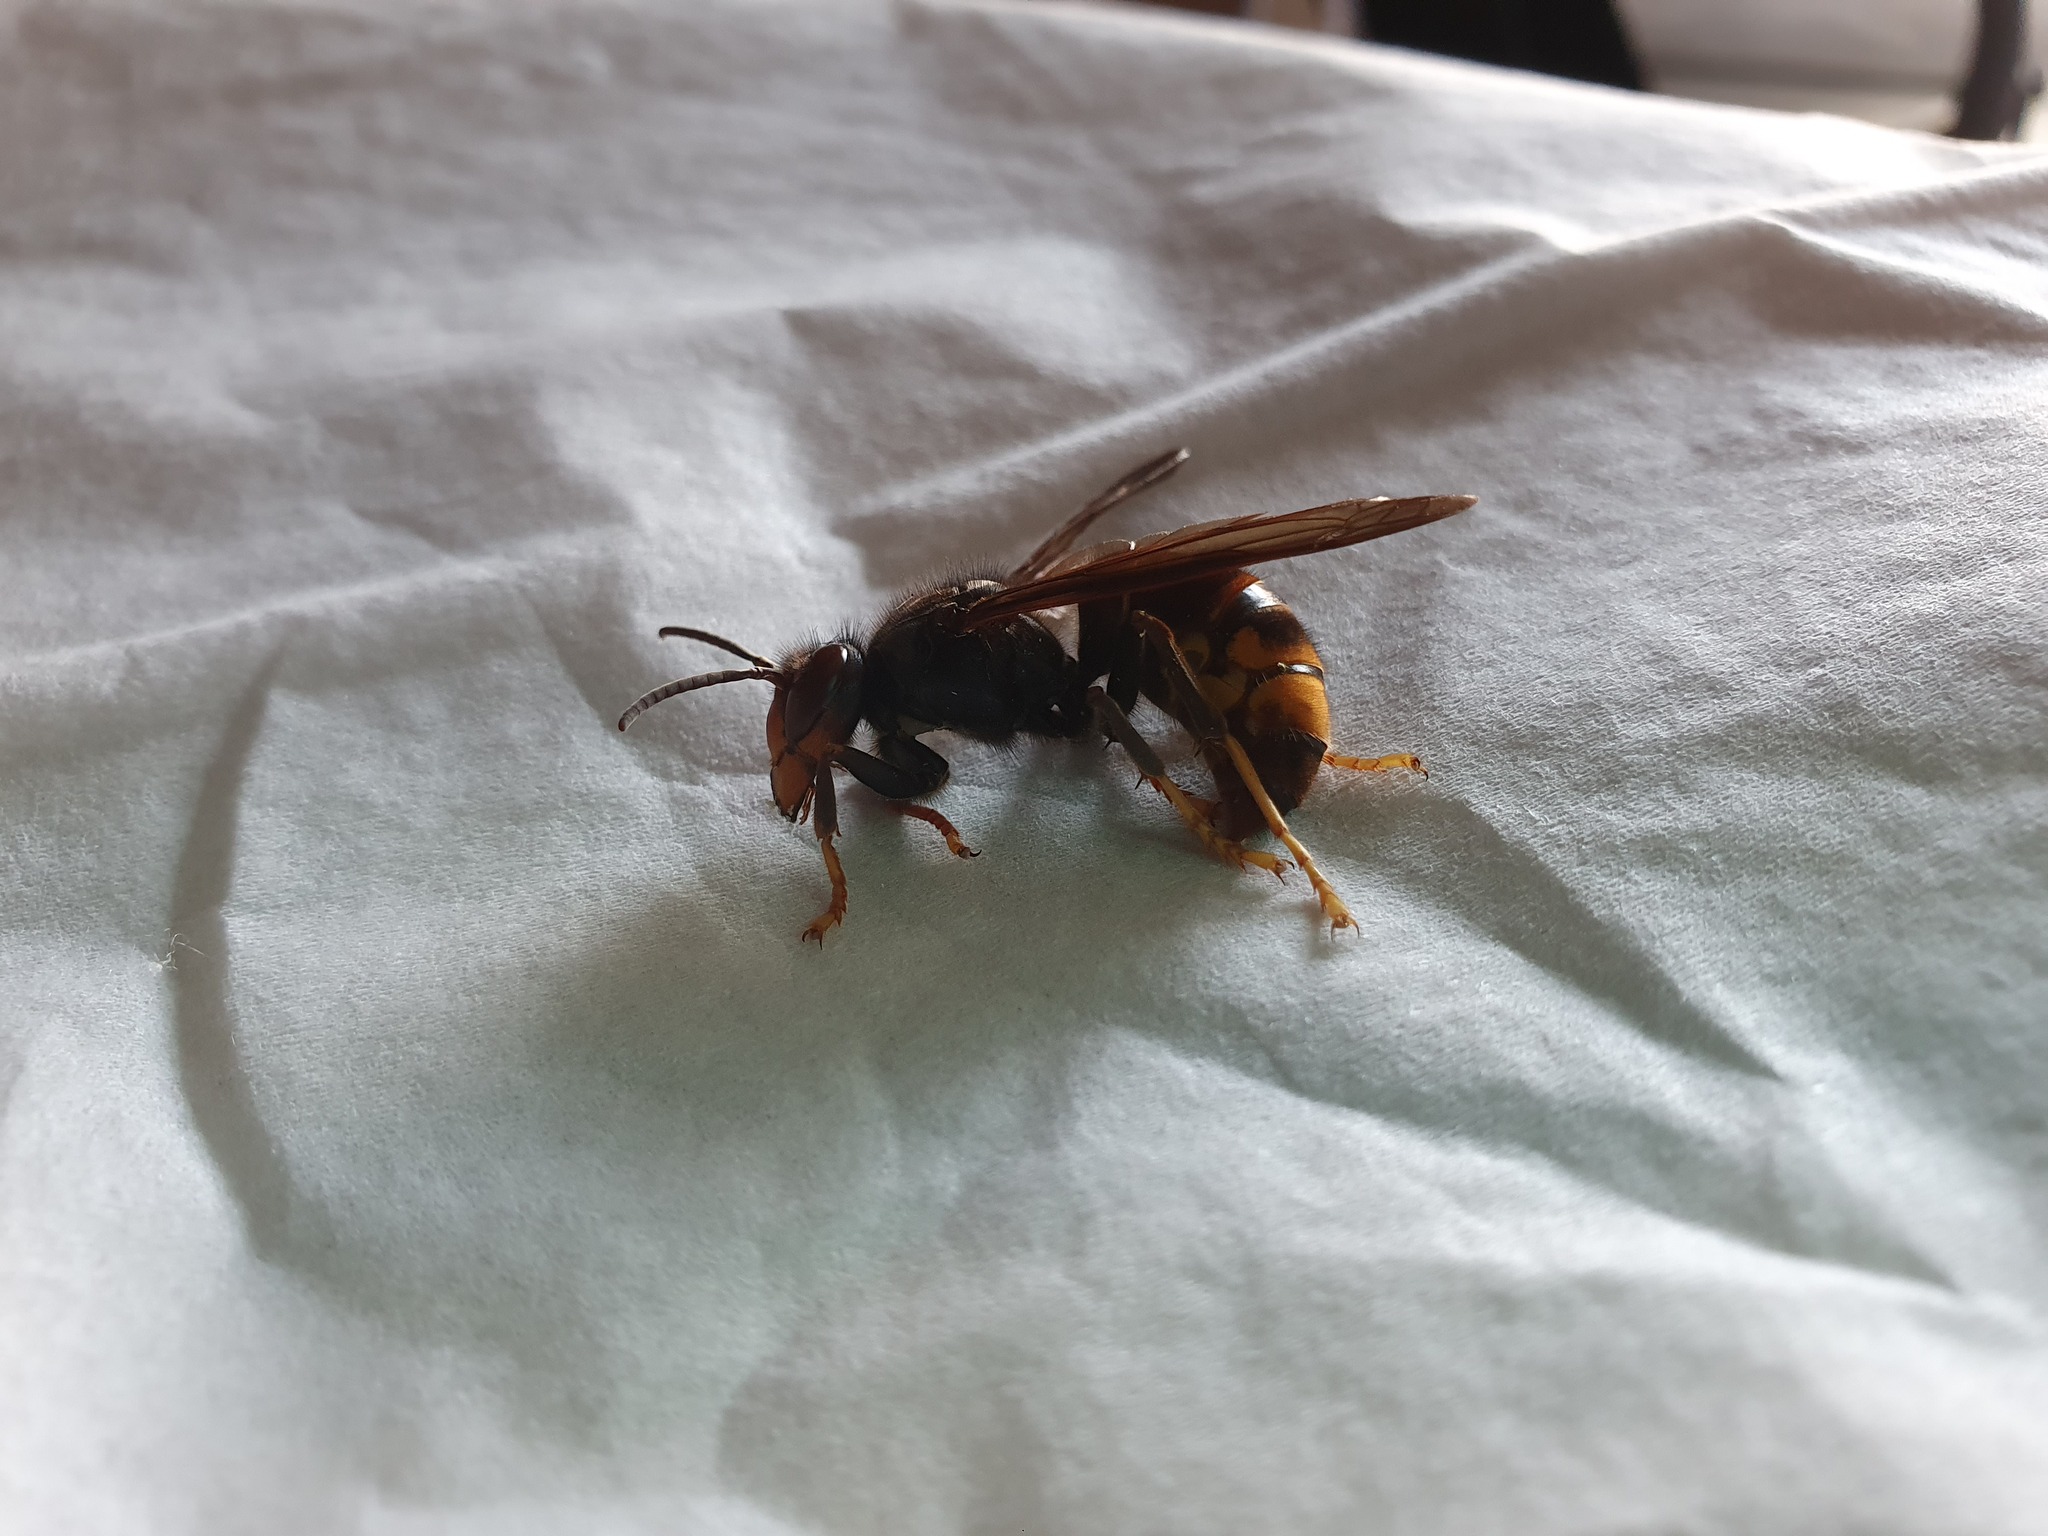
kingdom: Animalia
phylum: Arthropoda
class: Insecta
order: Hymenoptera
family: Vespidae
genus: Vespa
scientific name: Vespa velutina
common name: Asian hornet
